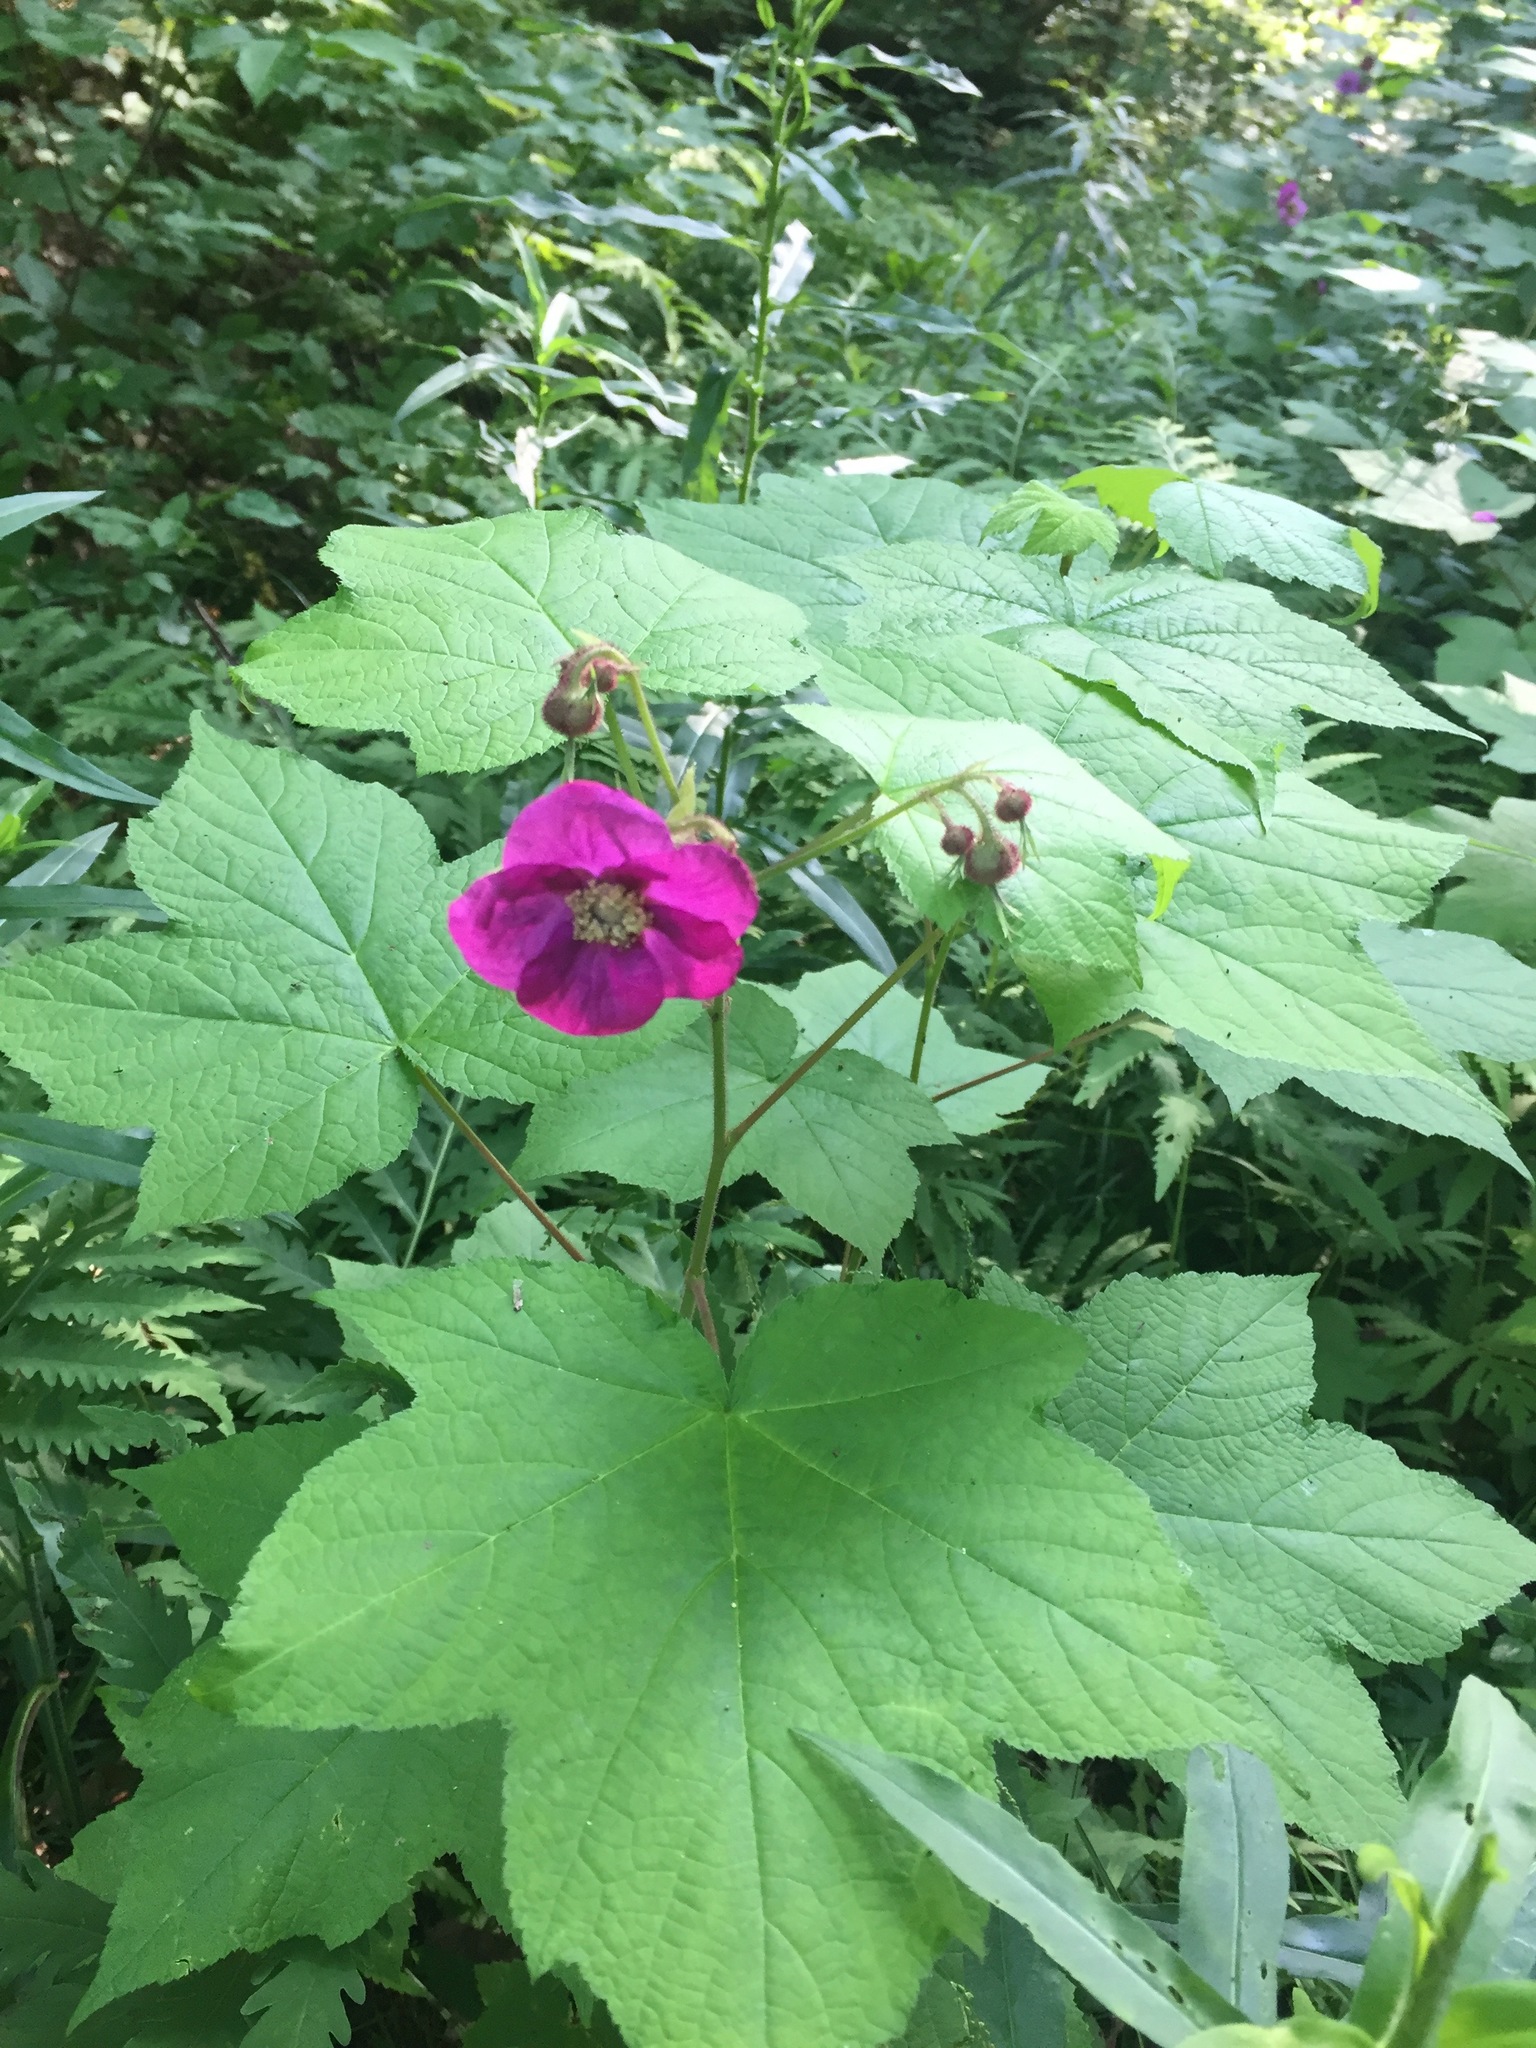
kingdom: Plantae
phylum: Tracheophyta
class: Magnoliopsida
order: Rosales
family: Rosaceae
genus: Rubus
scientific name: Rubus odoratus
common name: Purple-flowered raspberry
